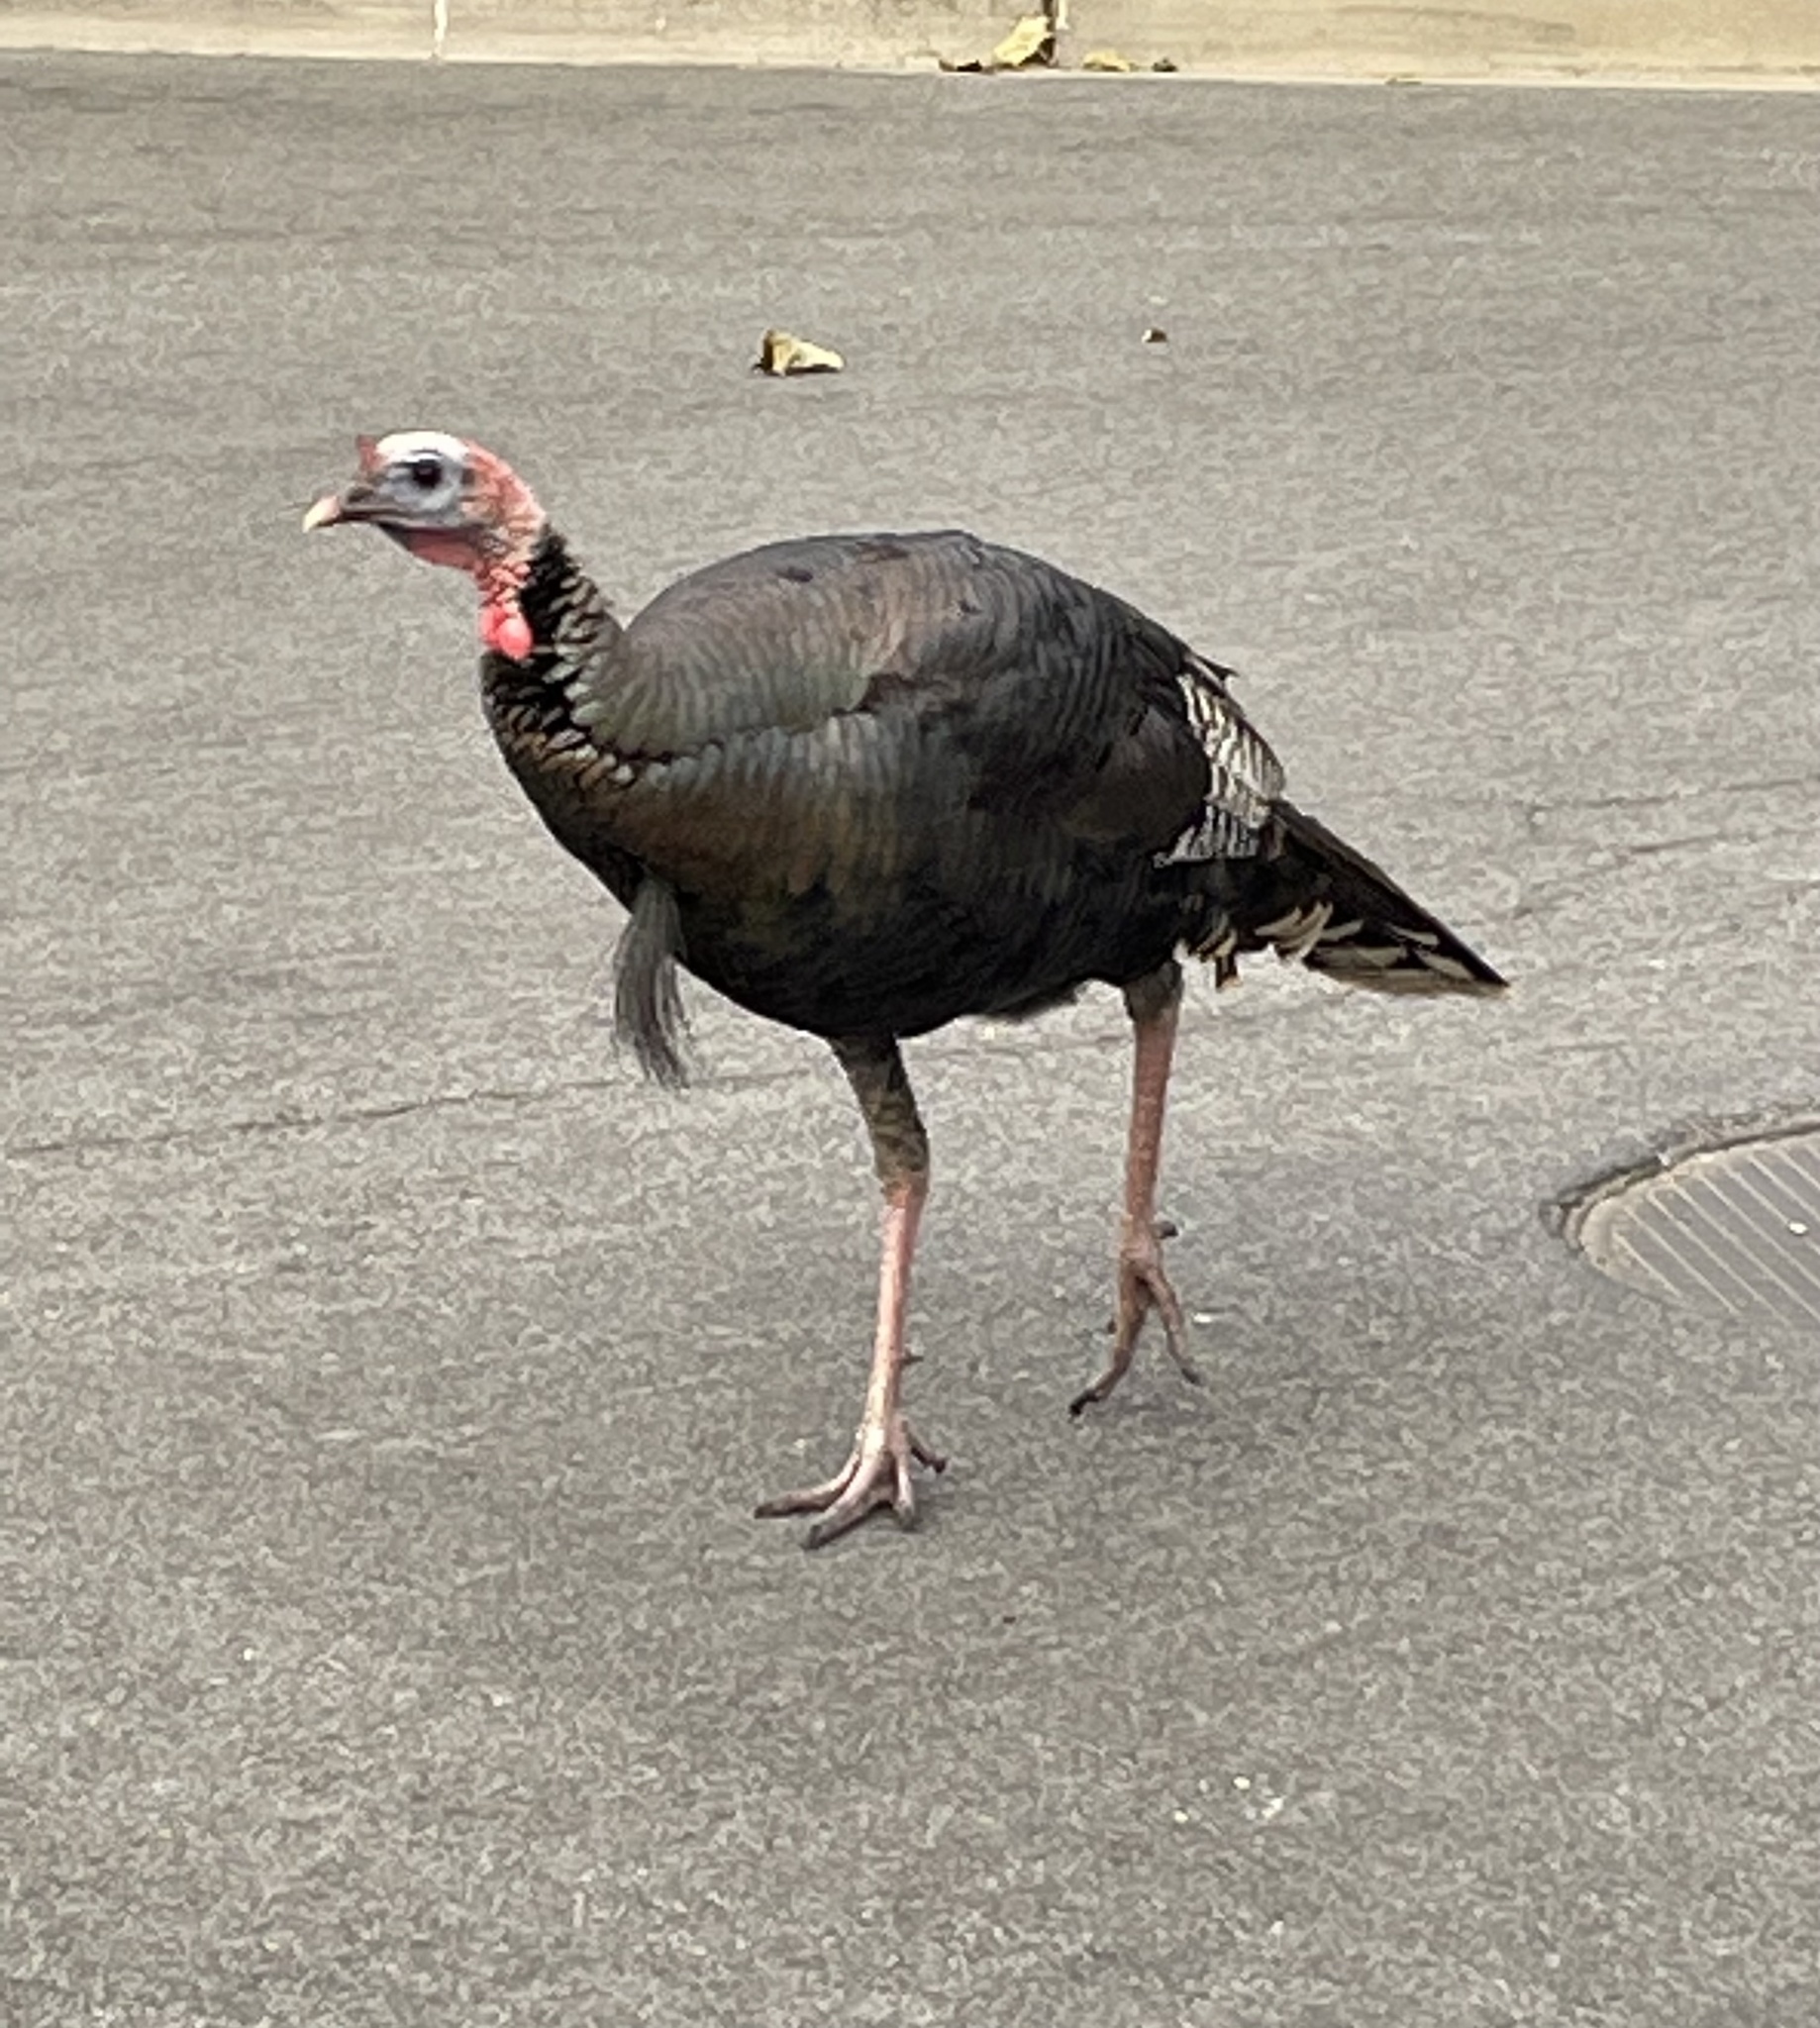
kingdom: Animalia
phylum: Chordata
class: Aves
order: Galliformes
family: Phasianidae
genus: Meleagris
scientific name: Meleagris gallopavo
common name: Wild turkey
